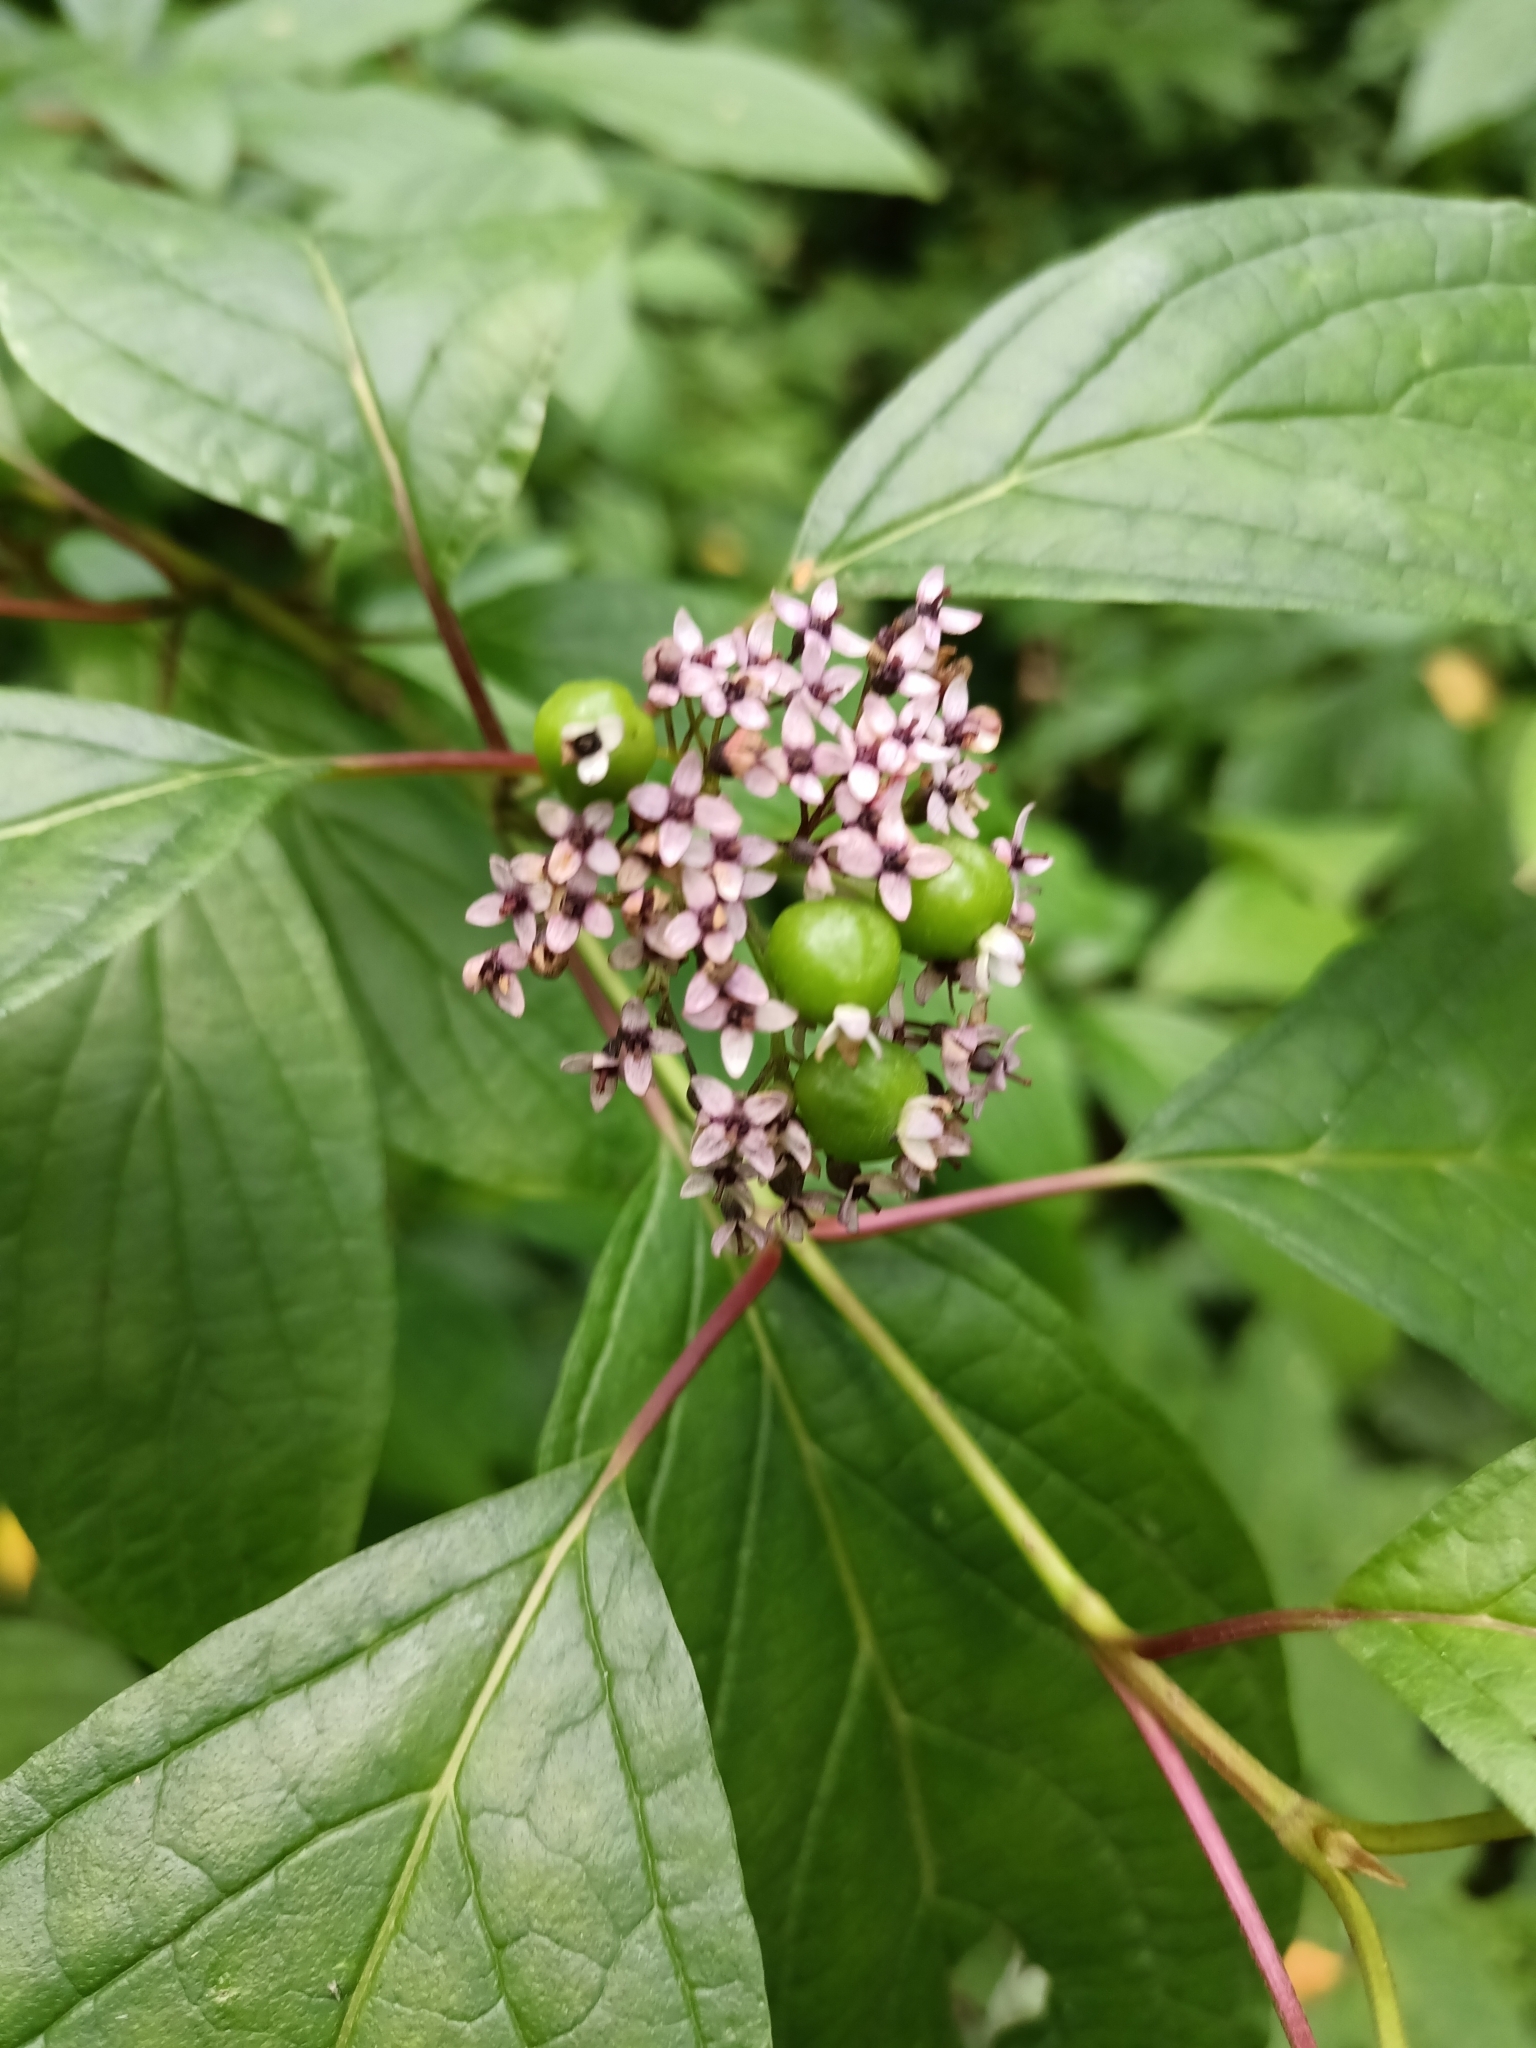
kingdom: Plantae
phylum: Tracheophyta
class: Magnoliopsida
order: Cornales
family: Cornaceae
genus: Cornus
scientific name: Cornus sericea
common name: Red-osier dogwood
